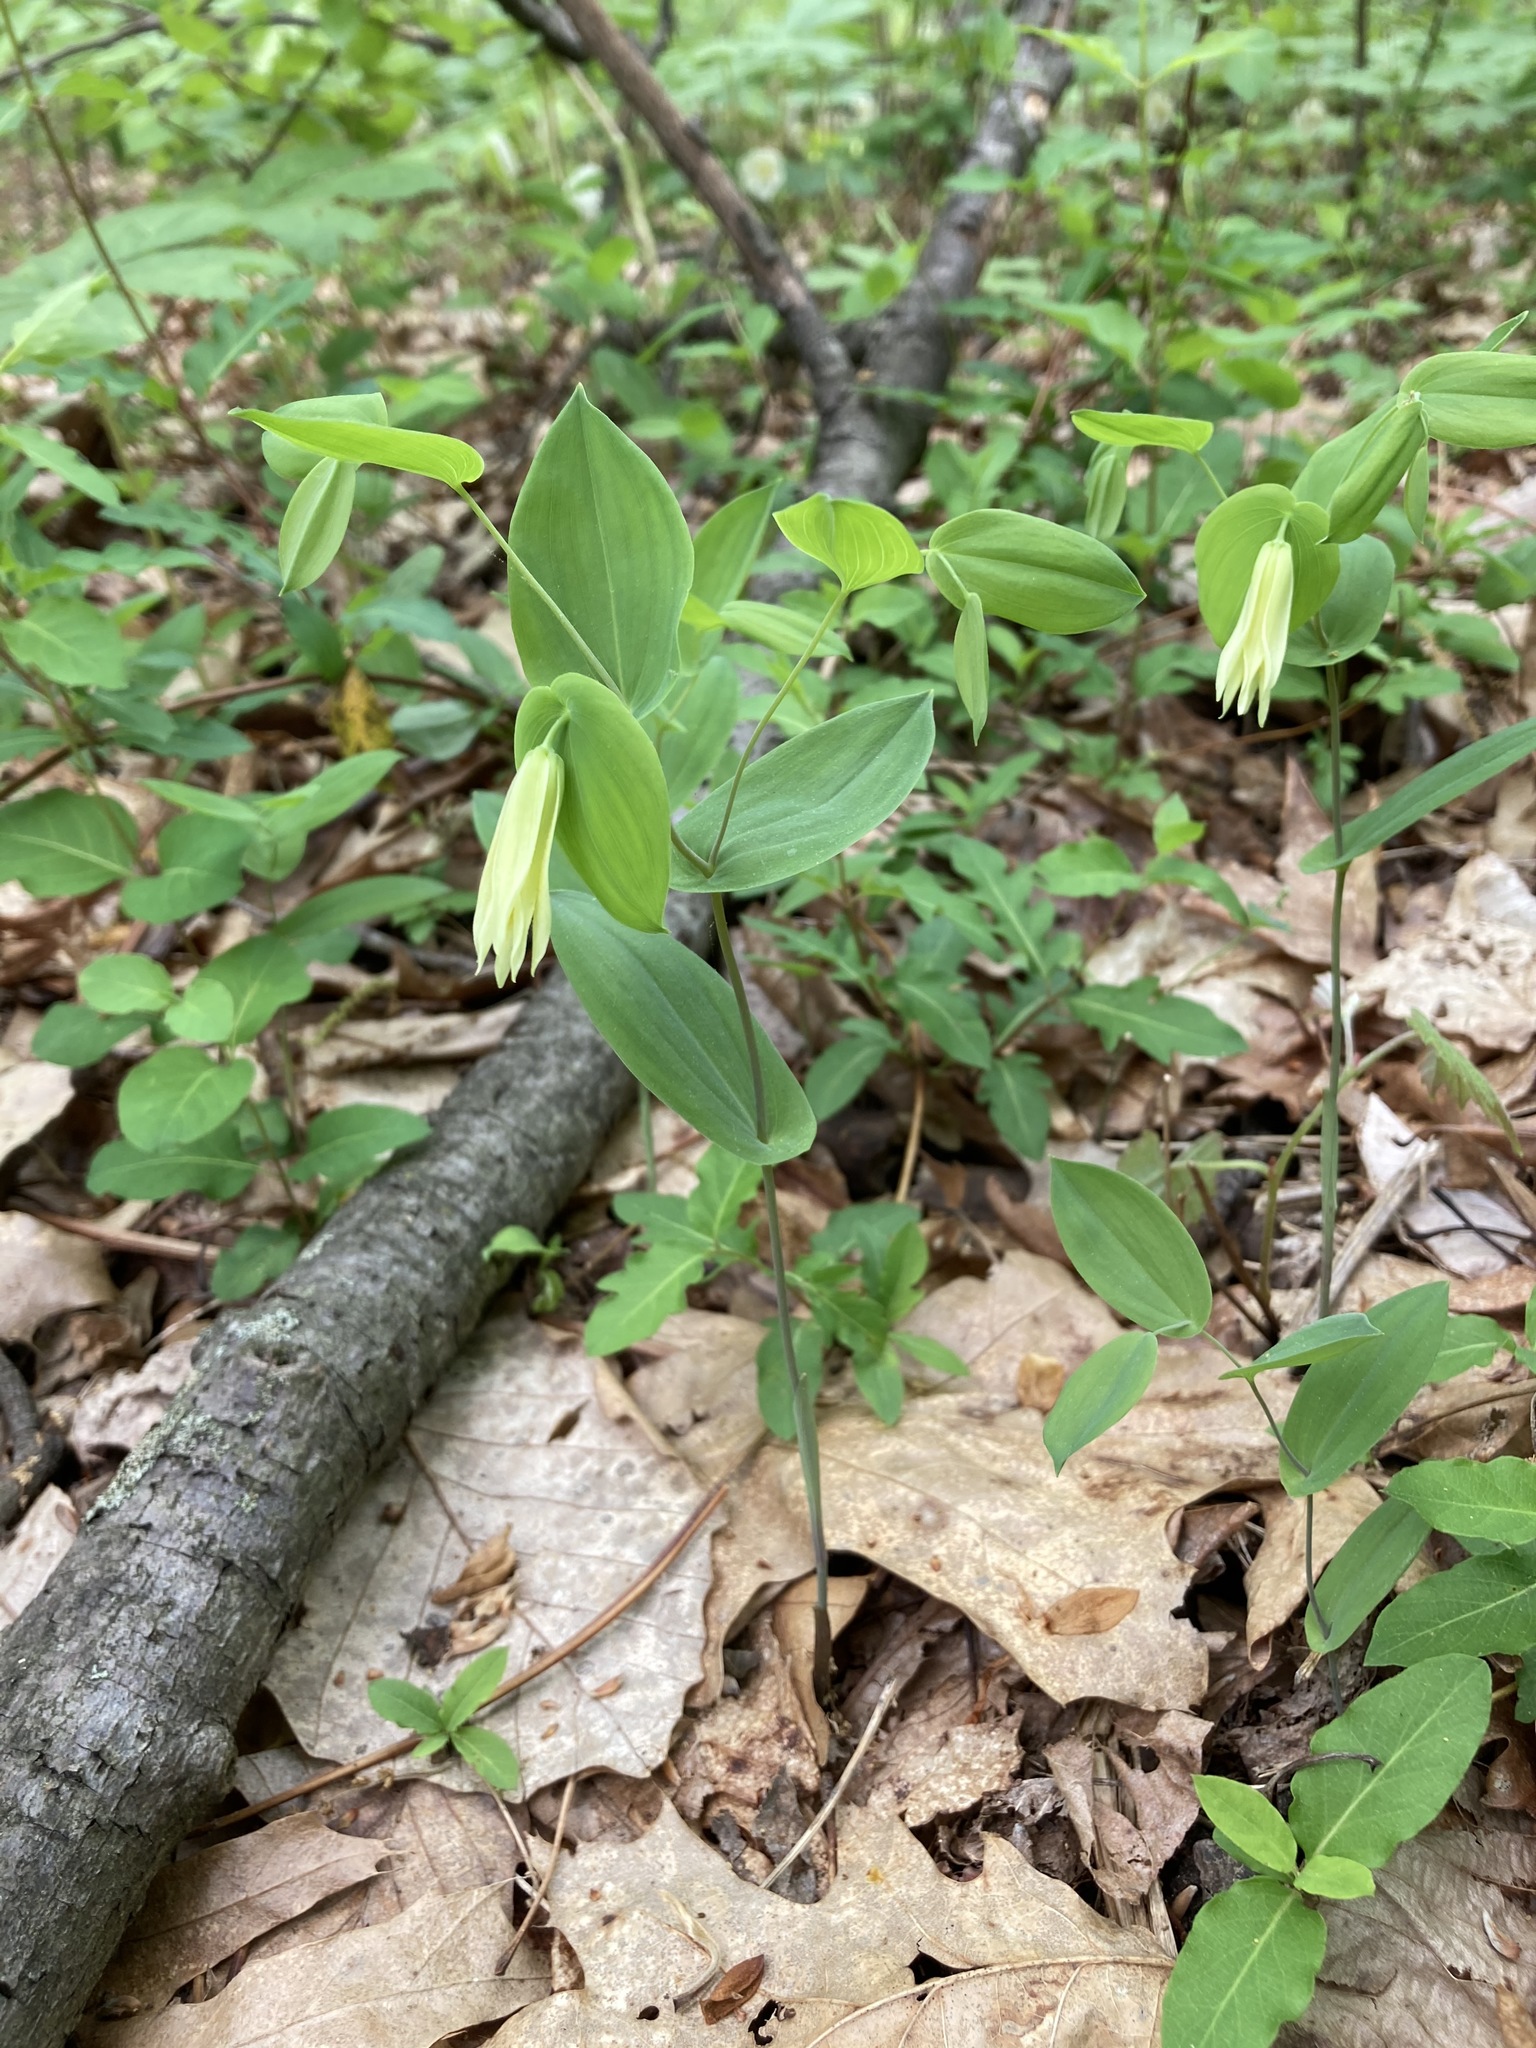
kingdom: Plantae
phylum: Tracheophyta
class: Liliopsida
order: Liliales
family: Colchicaceae
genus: Uvularia
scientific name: Uvularia perfoliata
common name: Perfoliate bellwort
